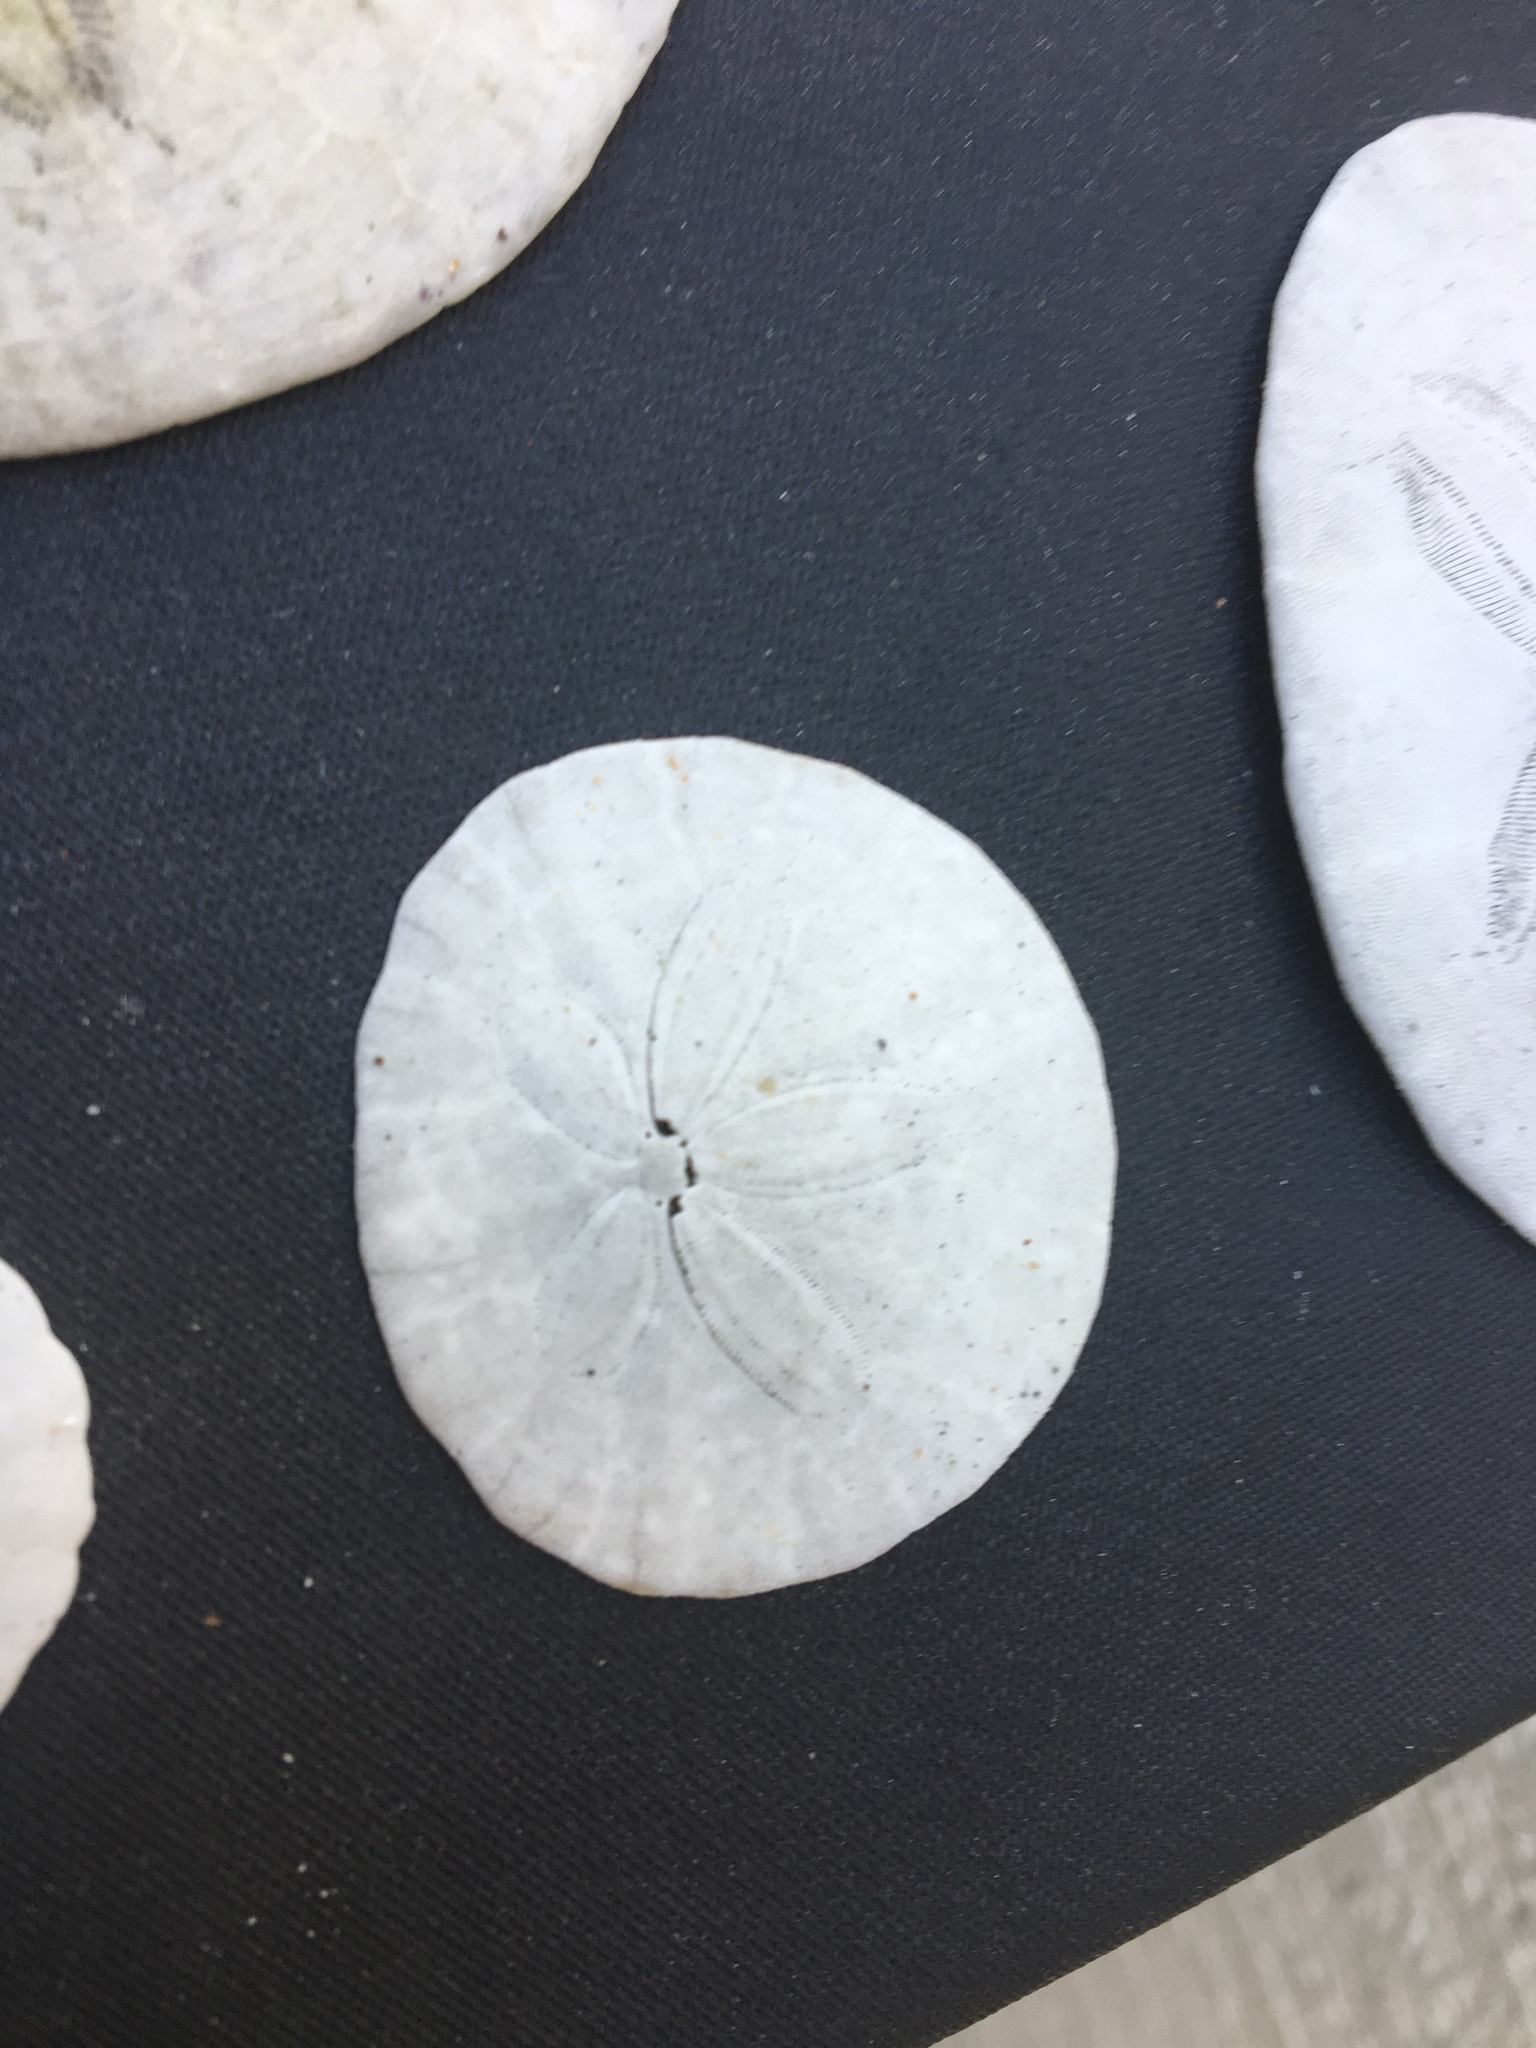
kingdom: Animalia
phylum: Echinodermata
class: Echinoidea
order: Echinolampadacea
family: Dendrasteridae
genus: Dendraster
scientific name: Dendraster excentricus
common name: Eccentric sand dollar sea urchin
